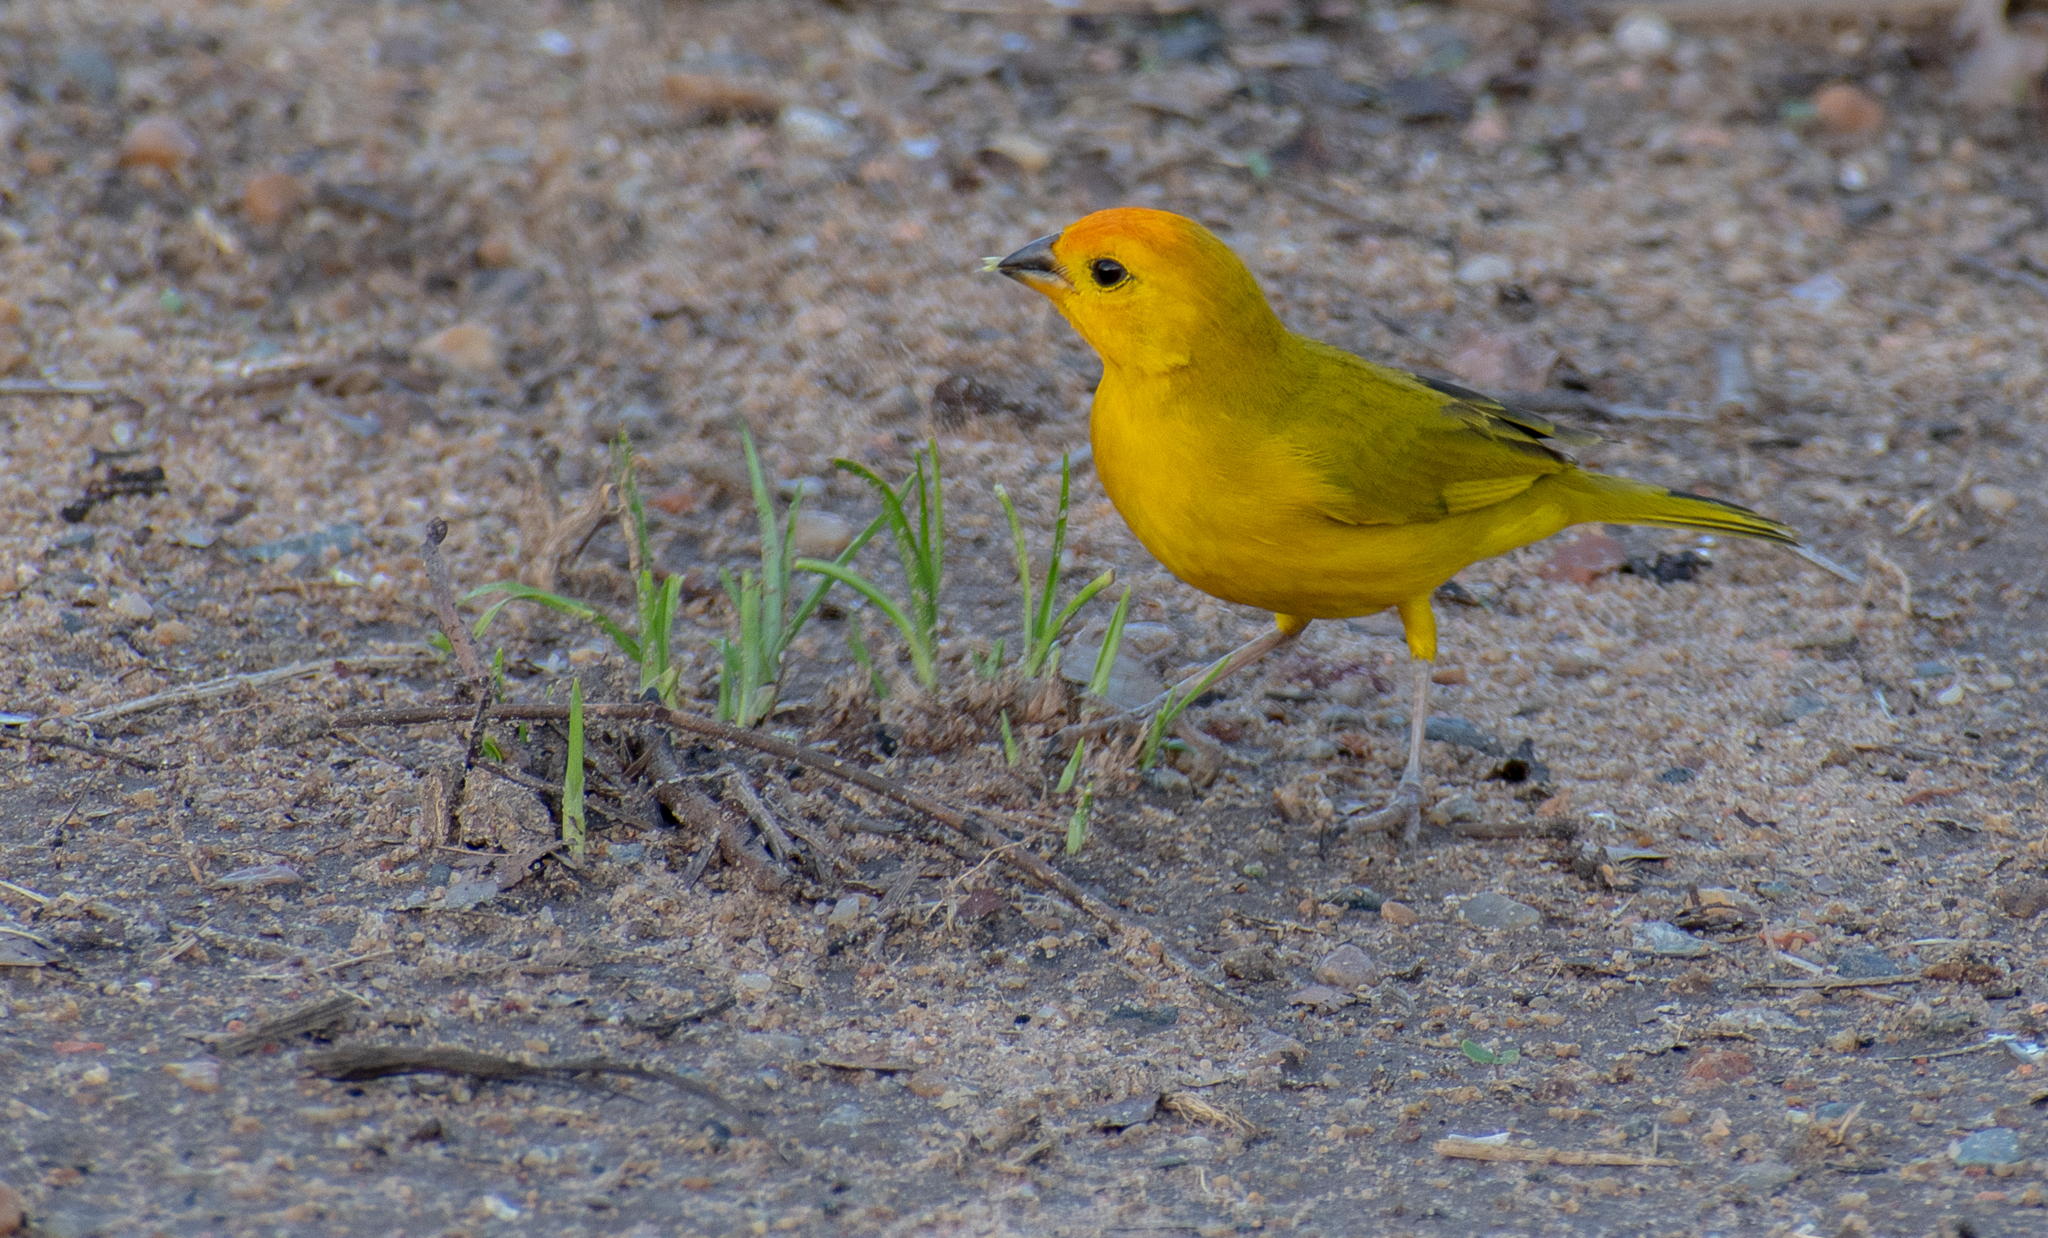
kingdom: Animalia
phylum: Chordata
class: Aves
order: Passeriformes
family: Thraupidae
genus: Sicalis
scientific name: Sicalis flaveola
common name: Saffron finch
